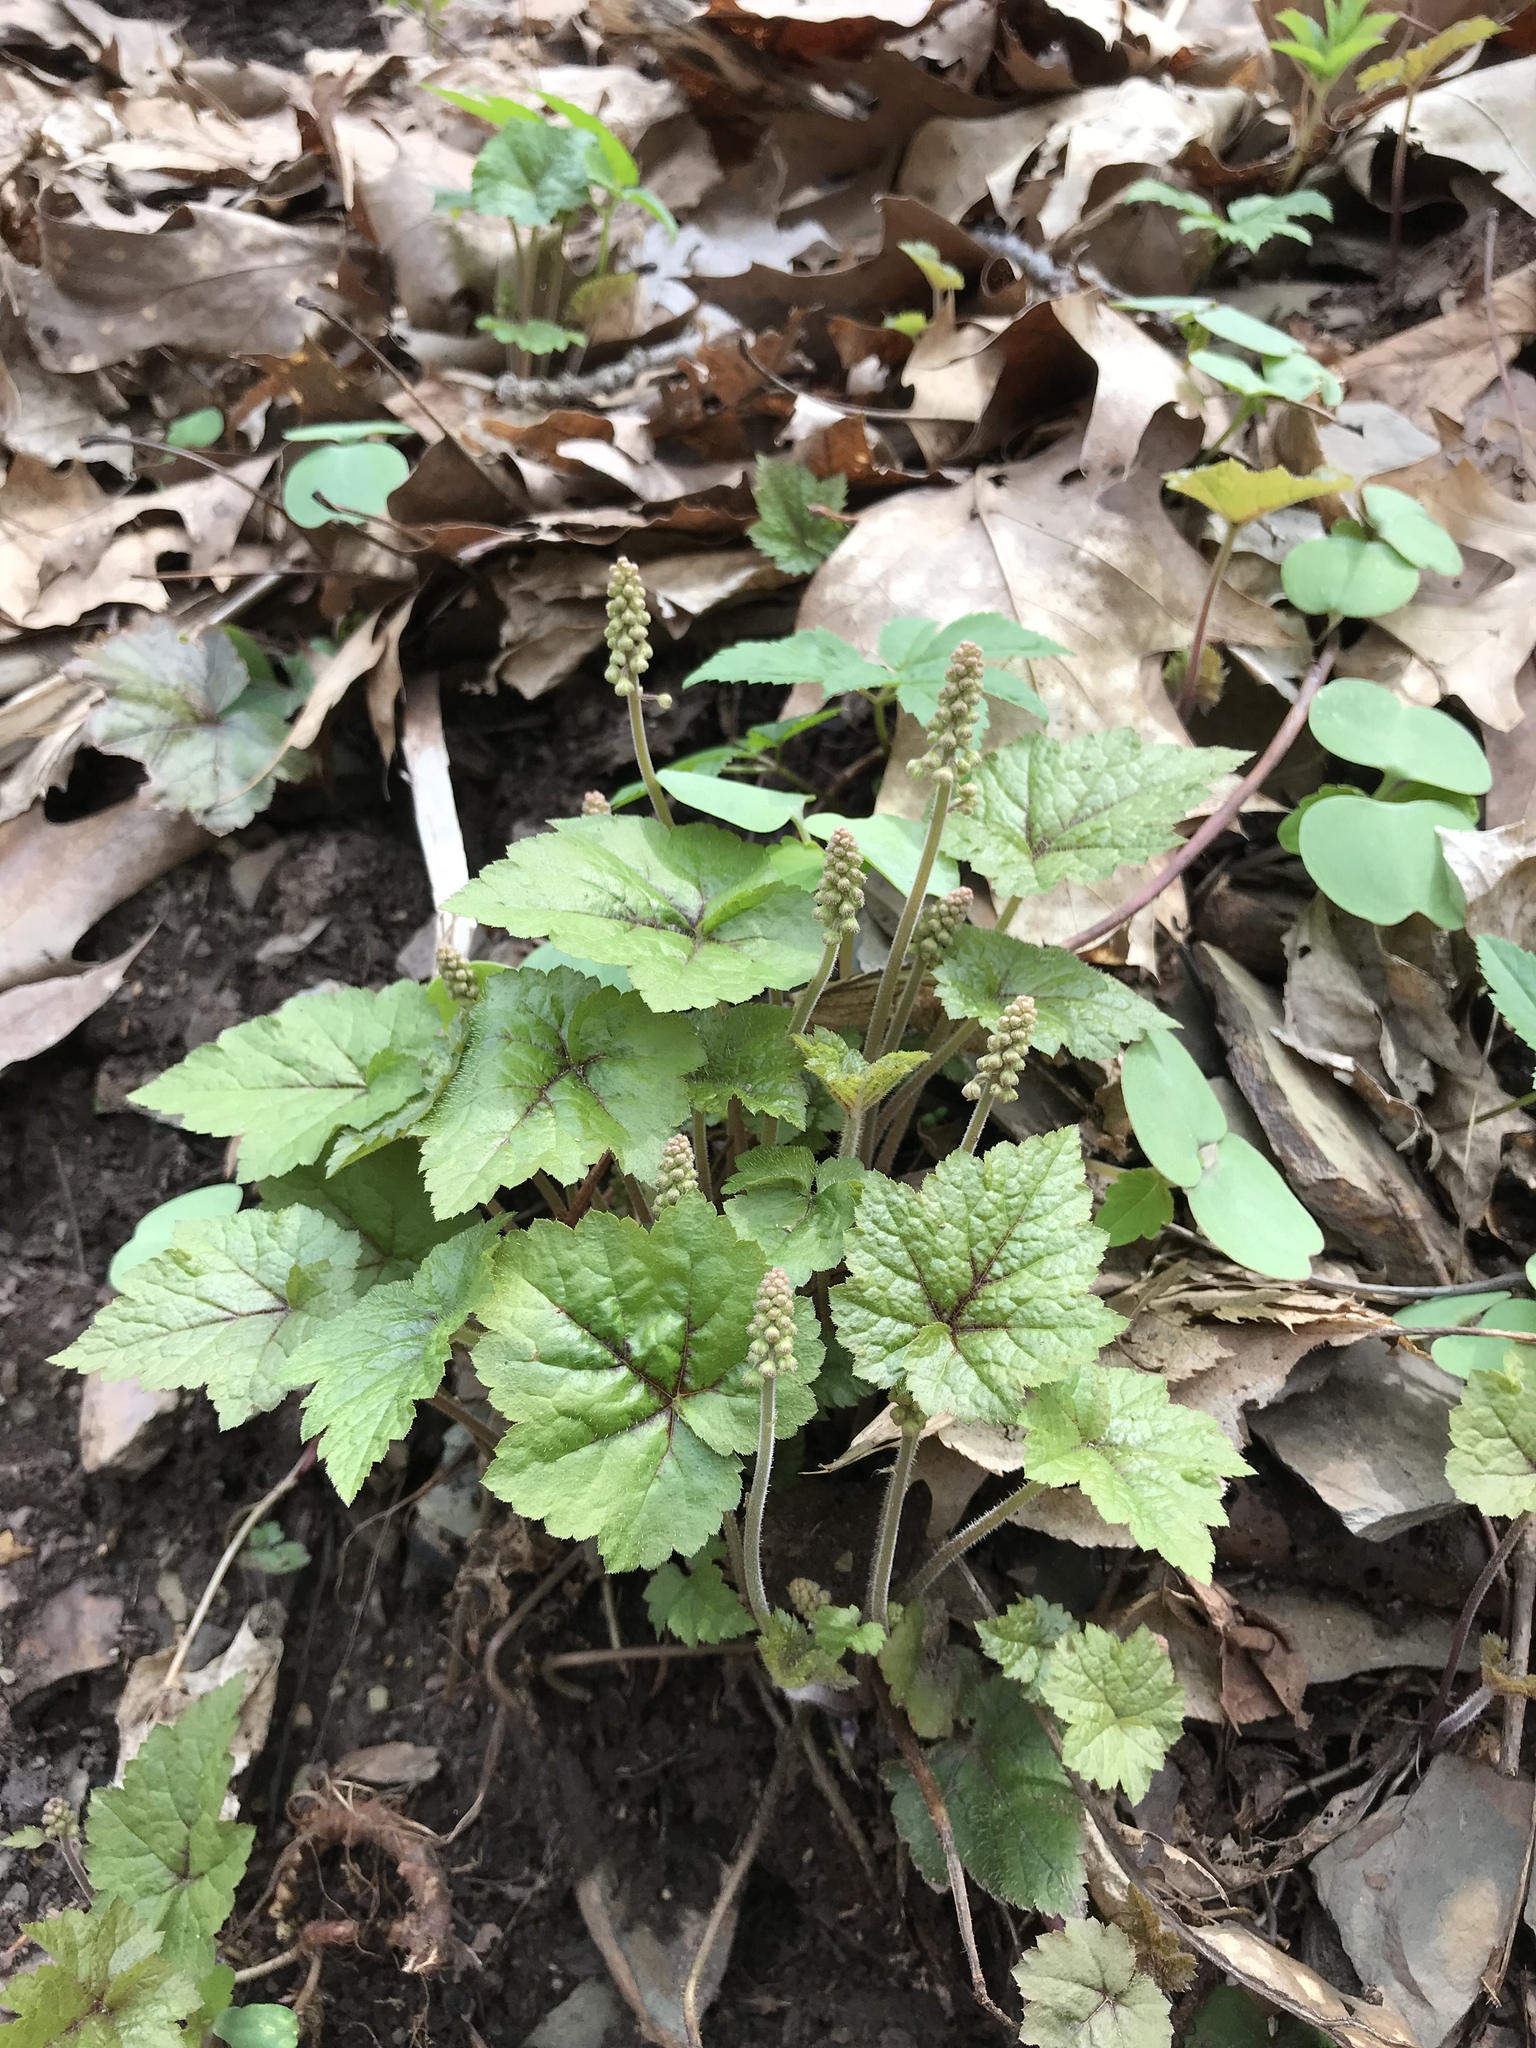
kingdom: Plantae
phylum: Tracheophyta
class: Magnoliopsida
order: Saxifragales
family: Saxifragaceae
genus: Tiarella
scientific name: Tiarella stolonifera
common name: Stoloniferous foamflower
